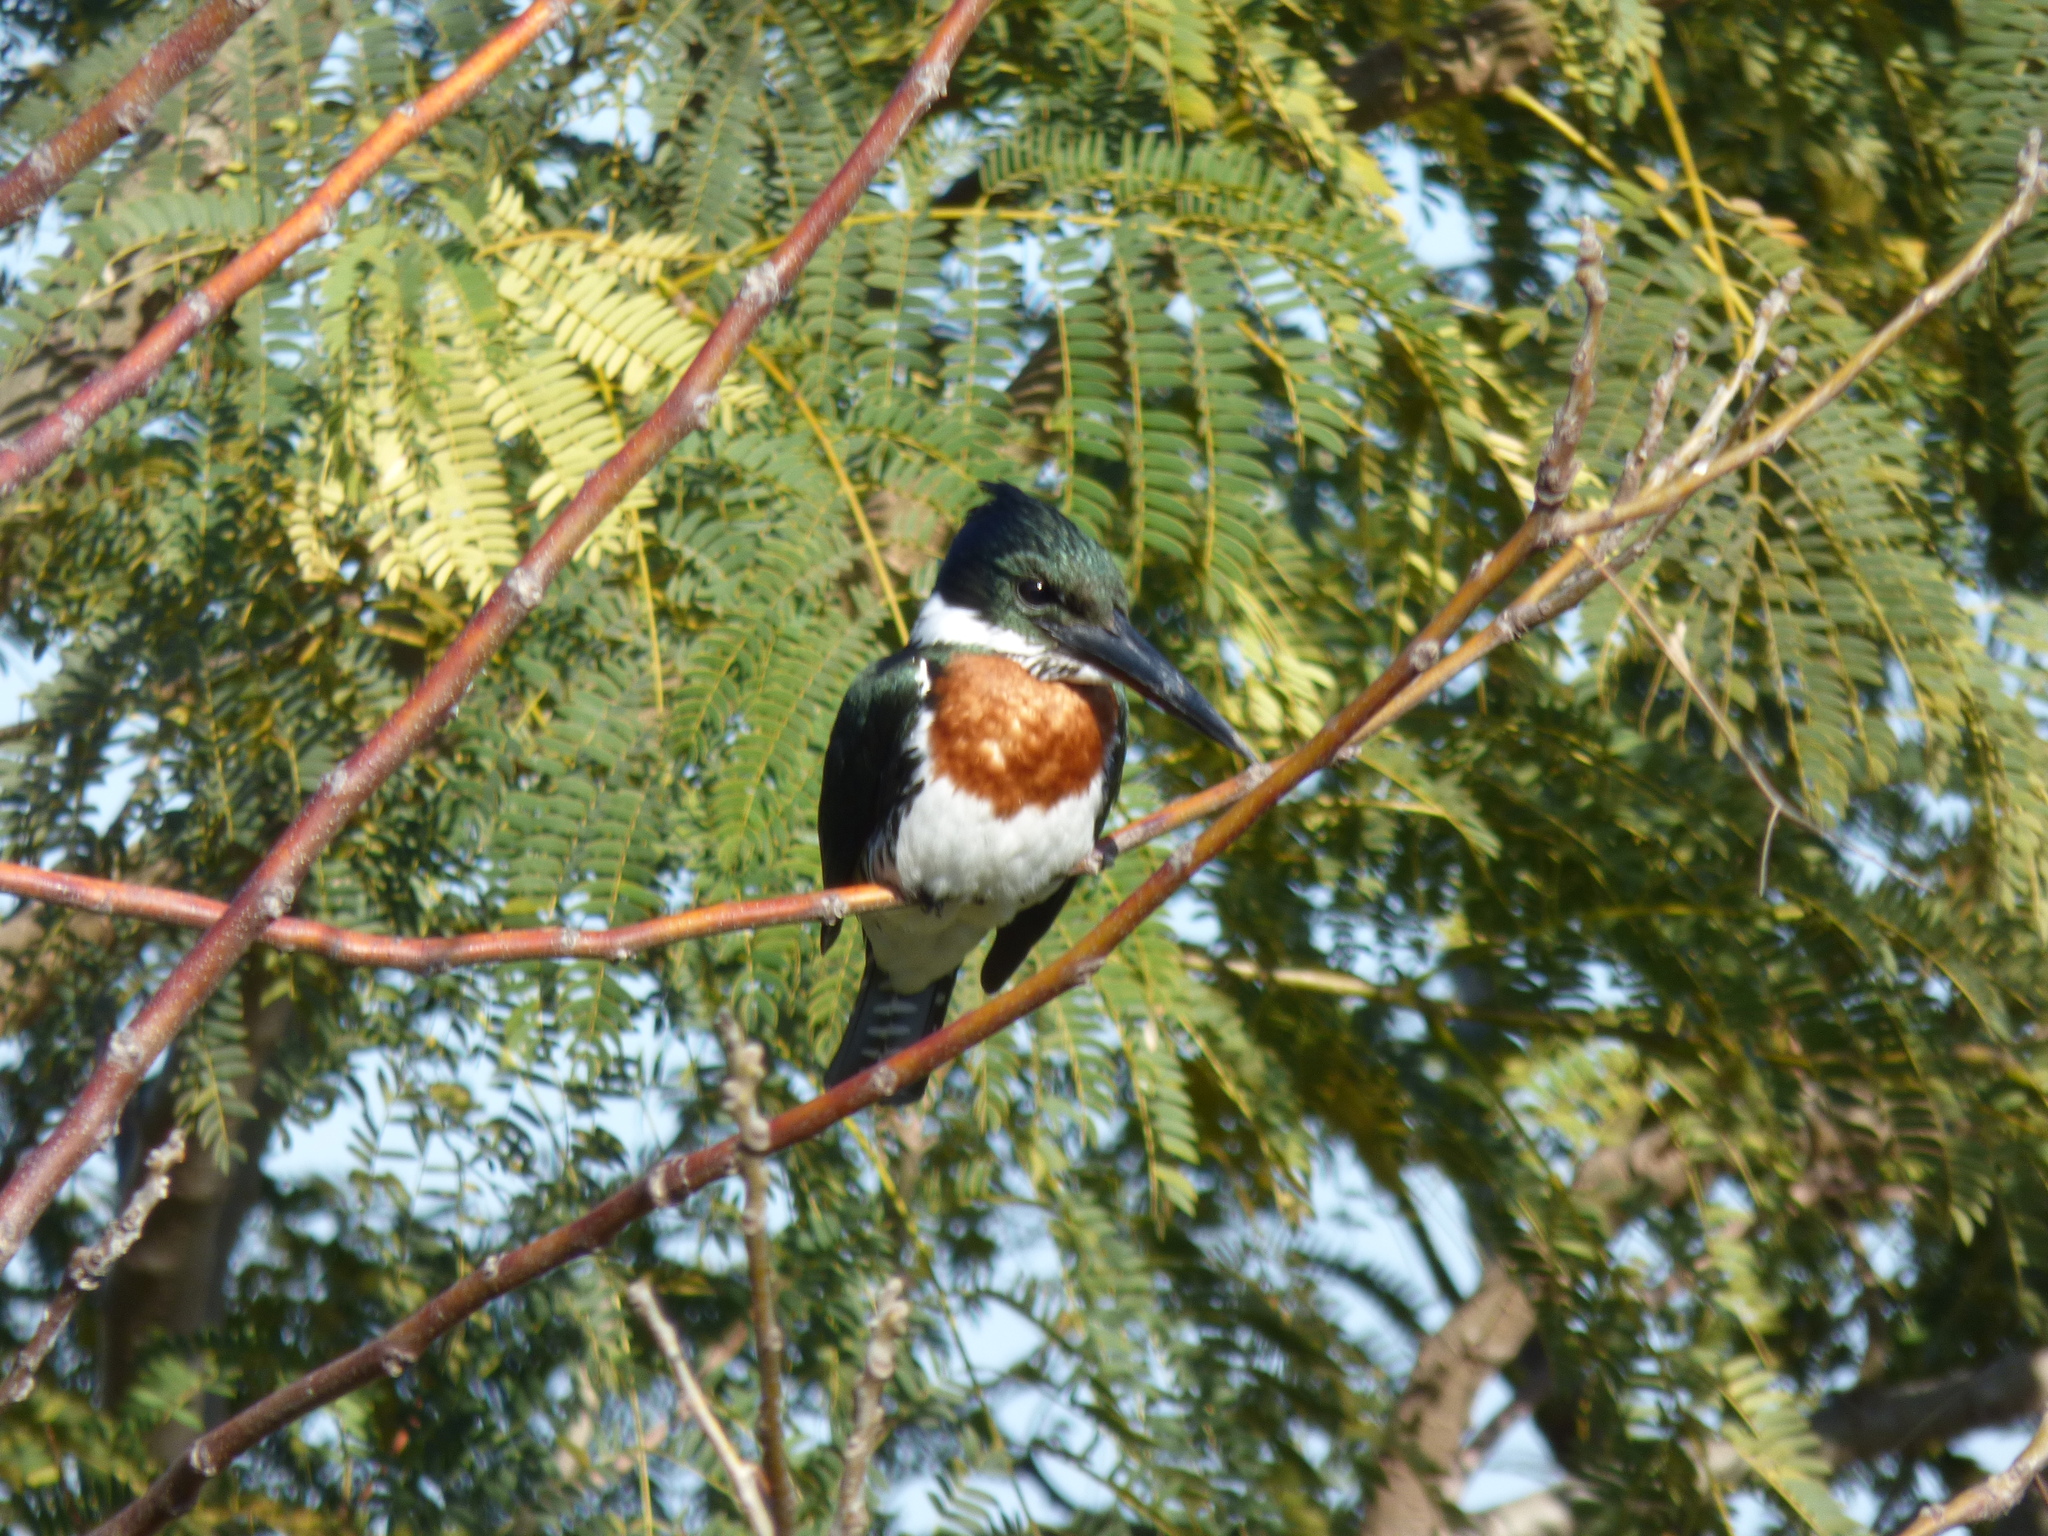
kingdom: Animalia
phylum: Chordata
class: Aves
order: Coraciiformes
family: Alcedinidae
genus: Chloroceryle
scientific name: Chloroceryle amazona
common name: Amazon kingfisher
